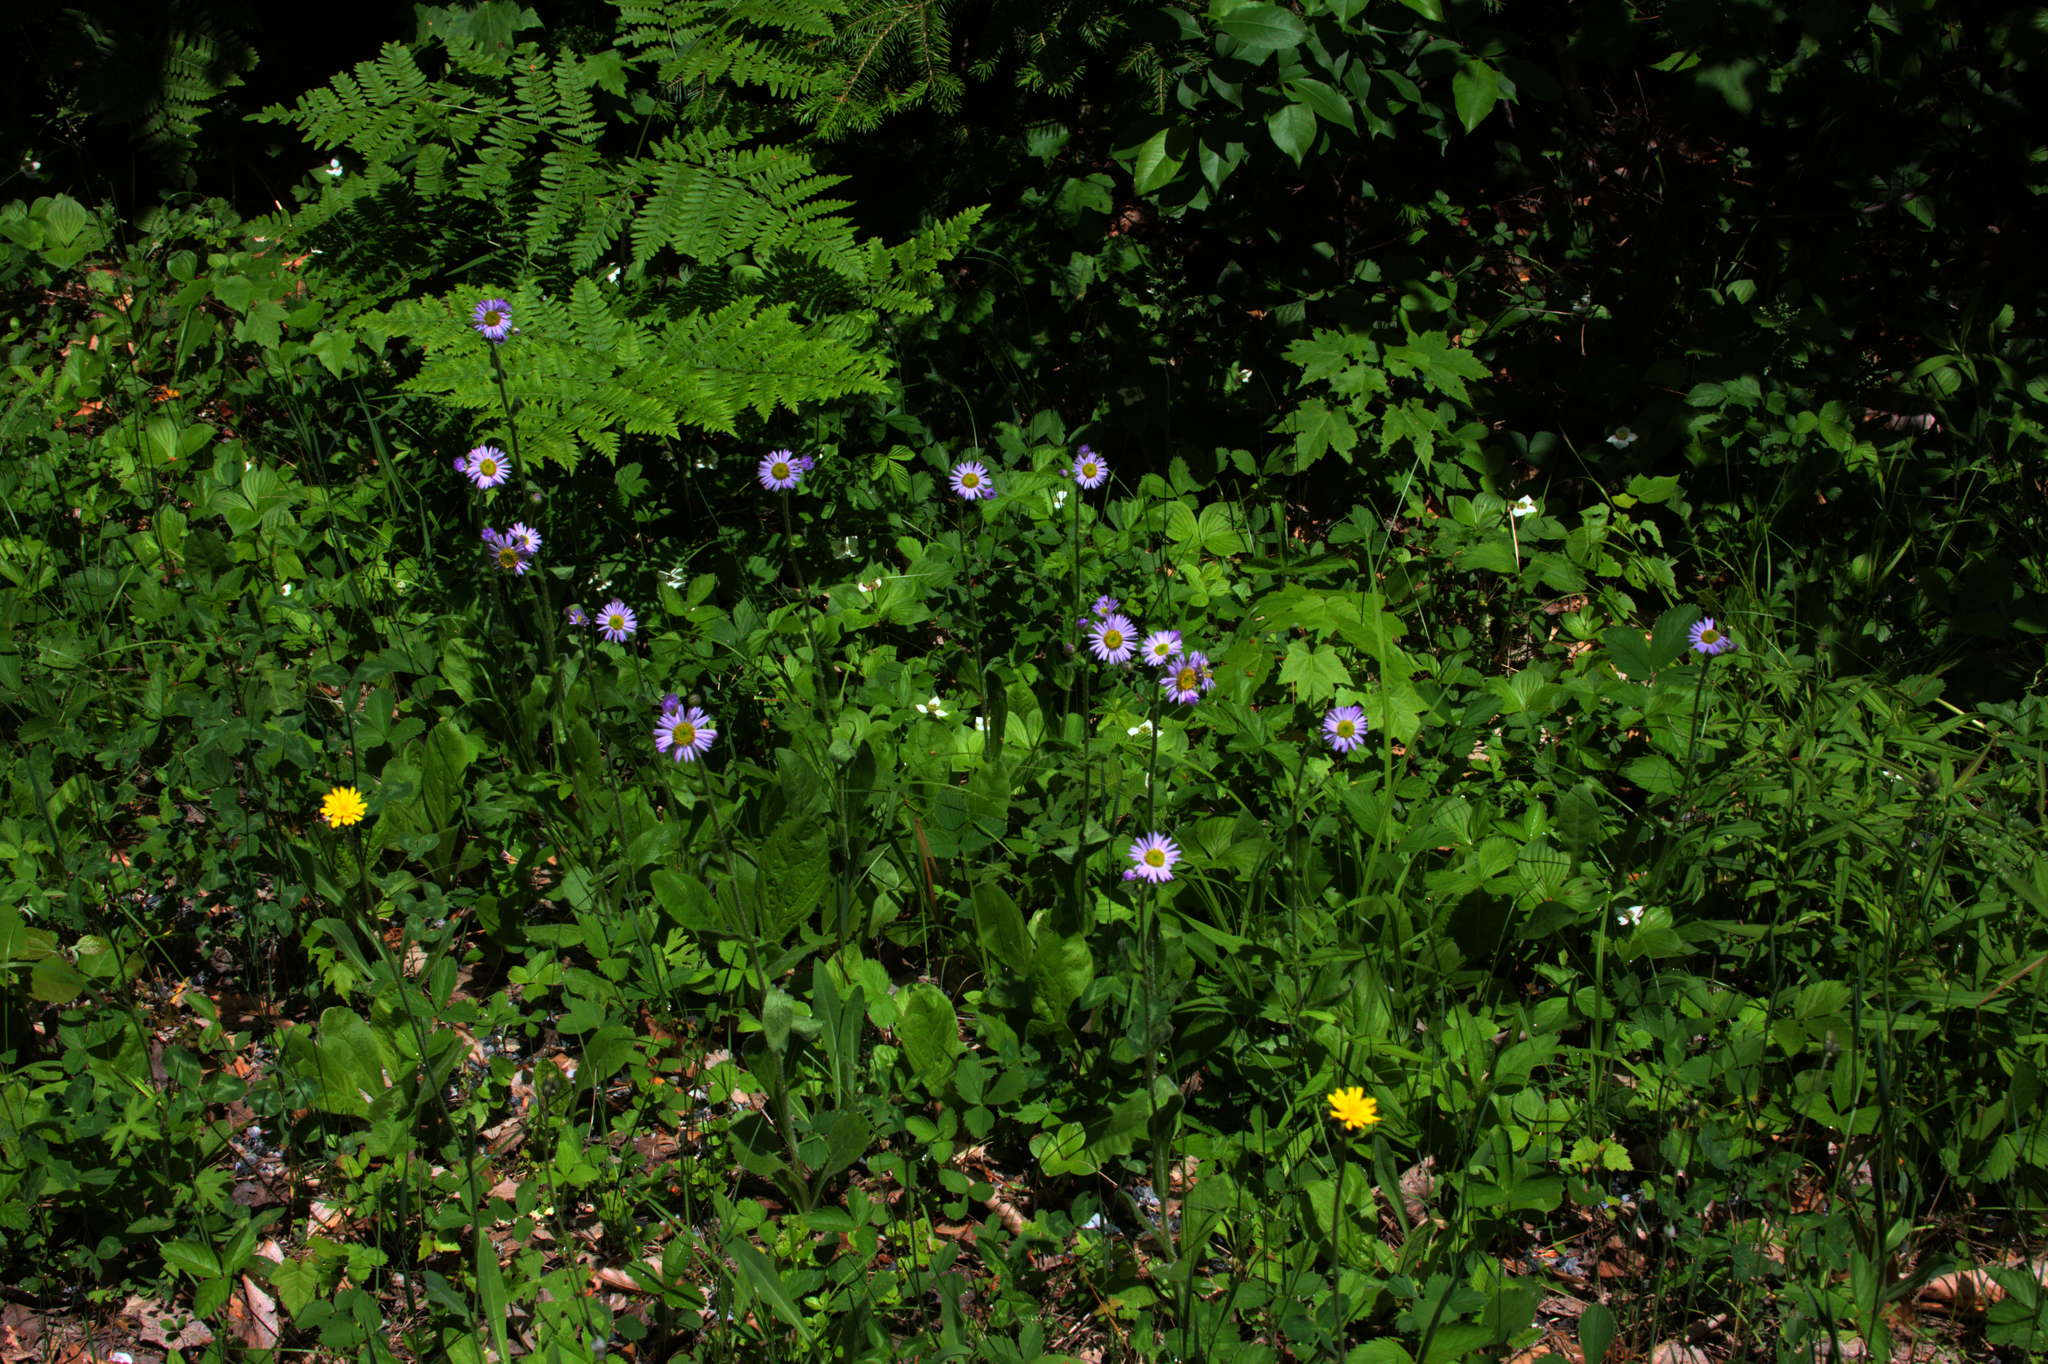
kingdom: Plantae
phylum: Tracheophyta
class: Magnoliopsida
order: Asterales
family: Asteraceae
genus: Erigeron
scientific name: Erigeron pulchellus
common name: Hairy fleabane
